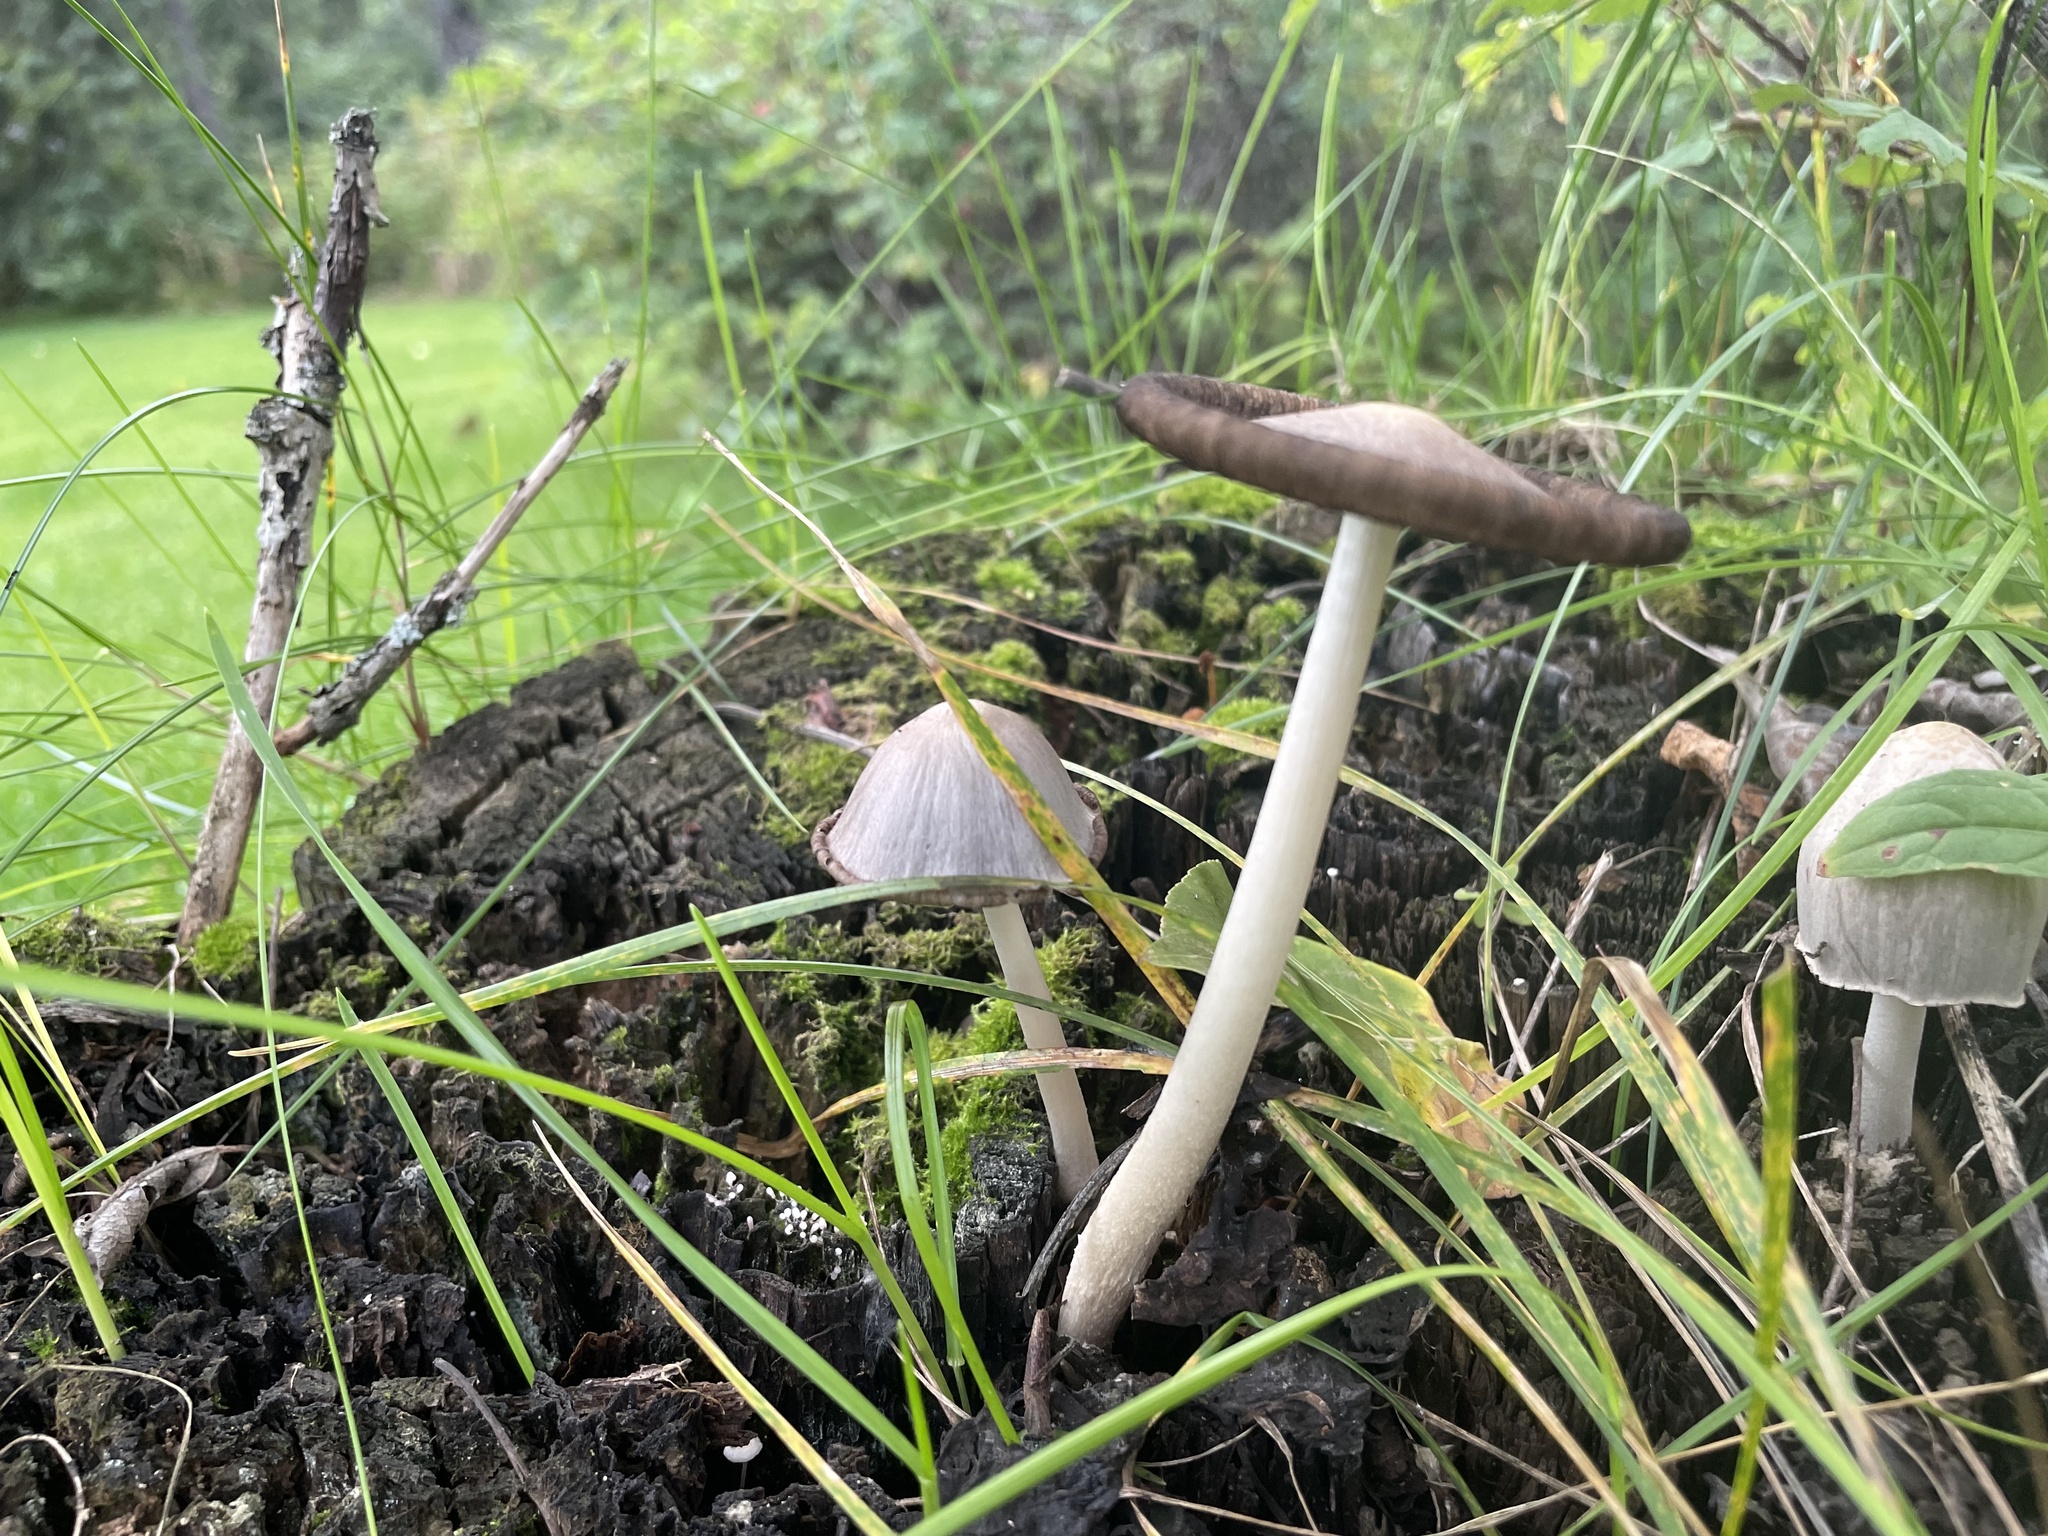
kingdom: Fungi
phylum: Basidiomycota
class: Agaricomycetes
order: Agaricales
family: Psathyrellaceae
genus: Coprinopsis
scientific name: Coprinopsis atramentaria
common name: Common ink-cap
